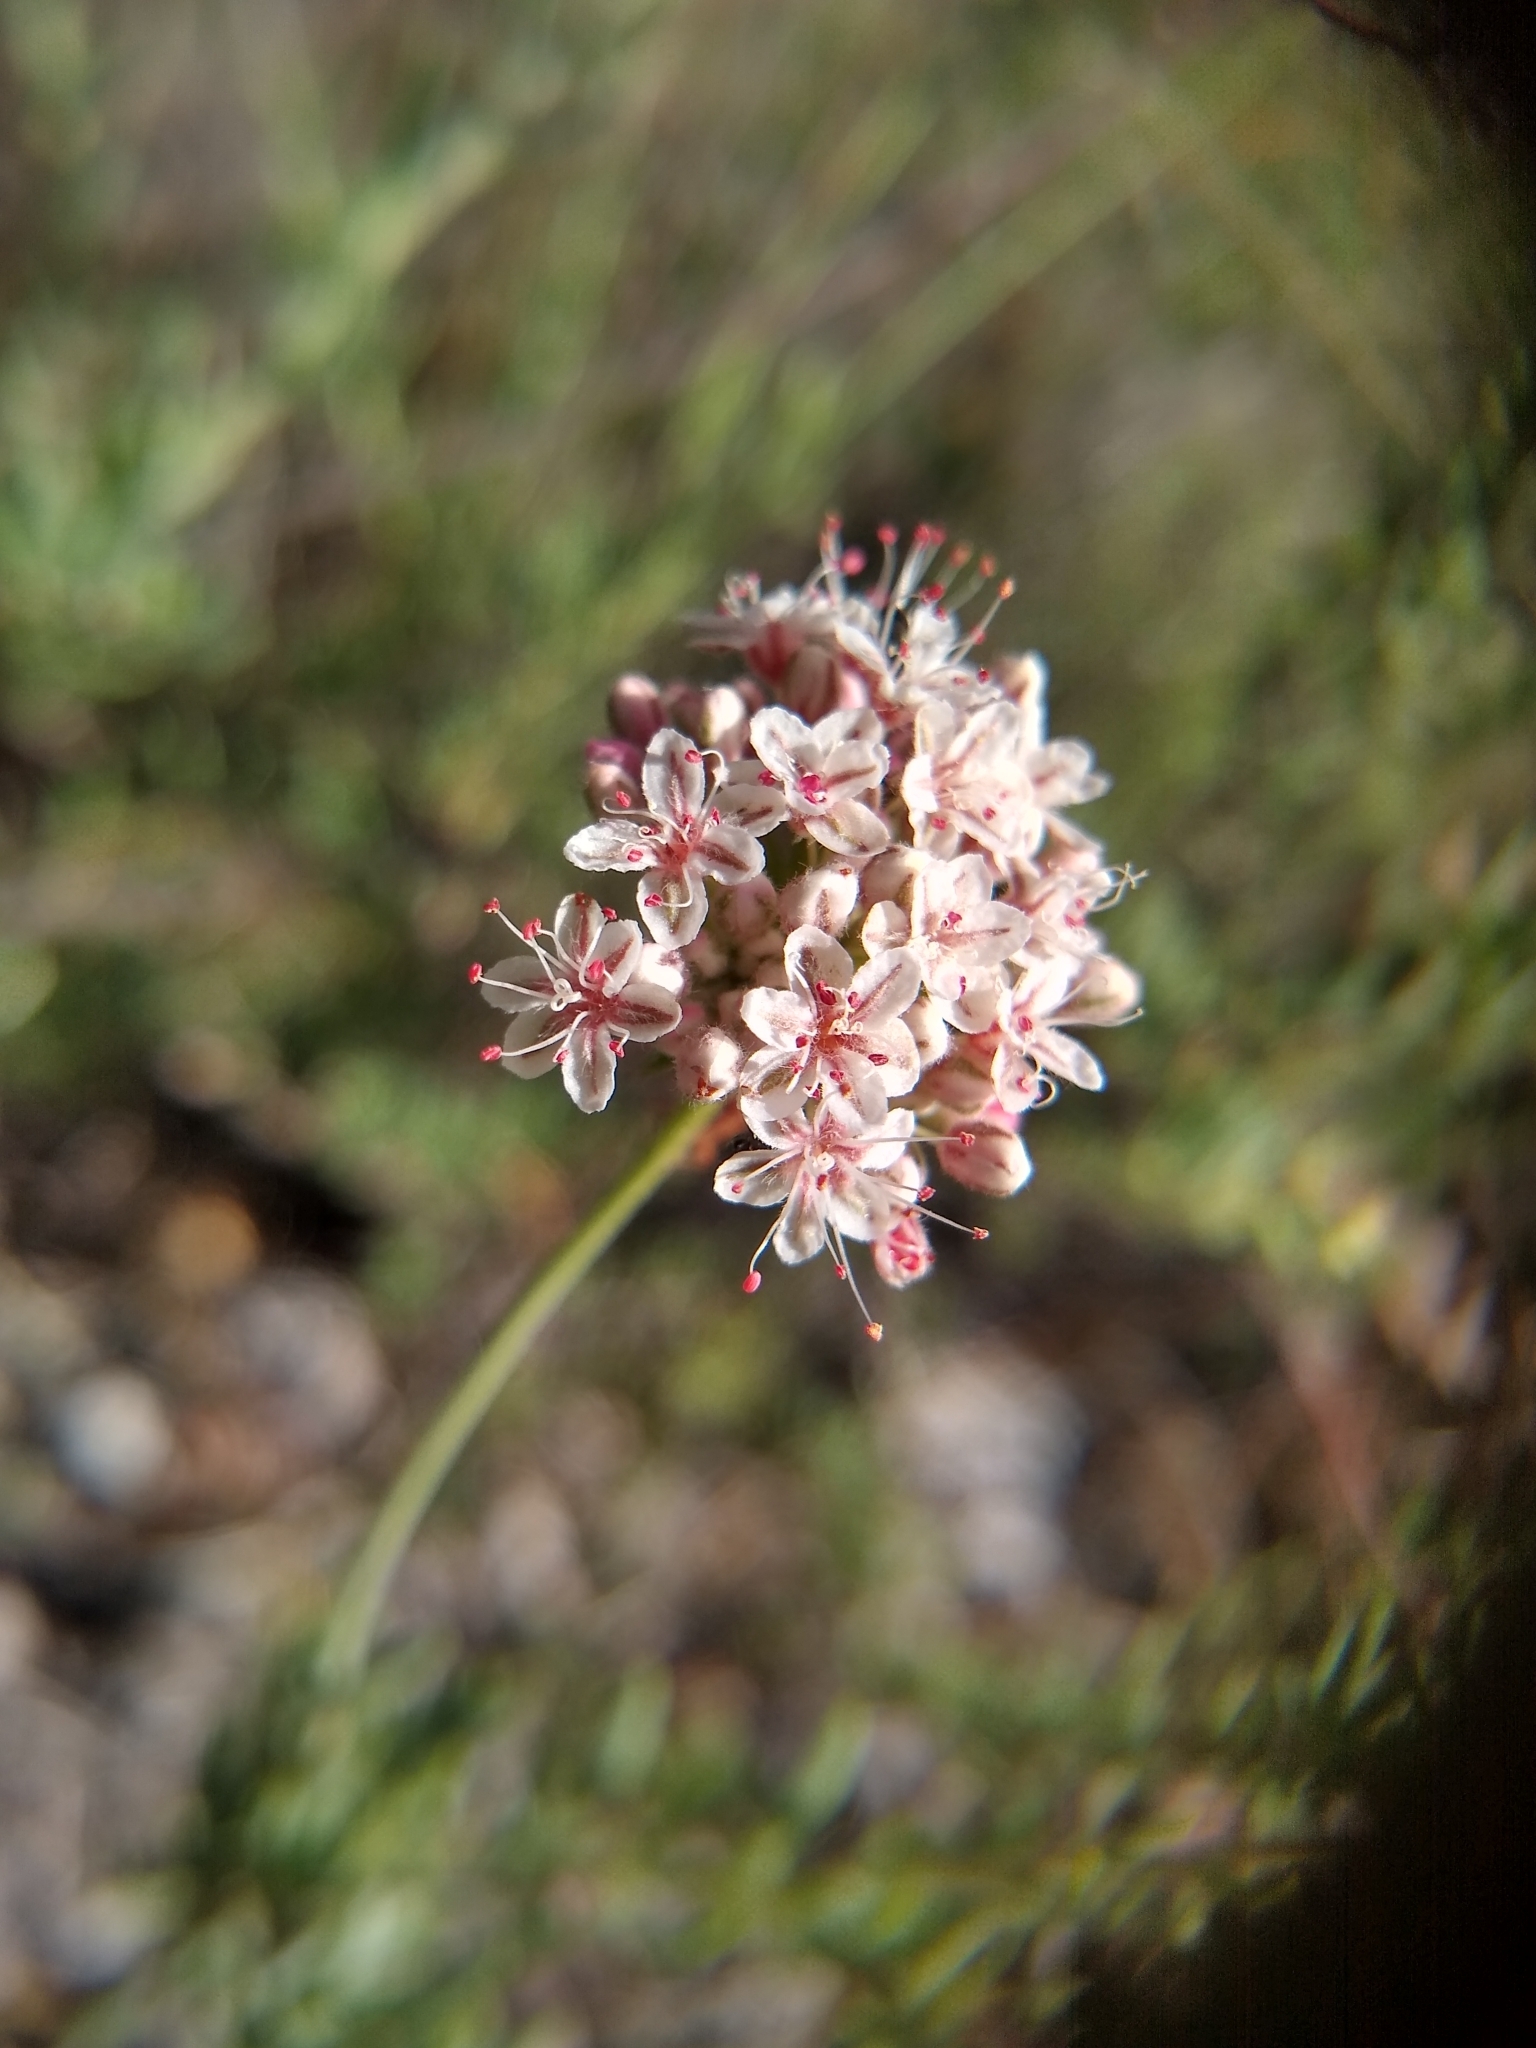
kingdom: Plantae
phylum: Tracheophyta
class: Magnoliopsida
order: Caryophyllales
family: Polygonaceae
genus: Eriogonum
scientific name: Eriogonum fasciculatum
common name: California wild buckwheat
